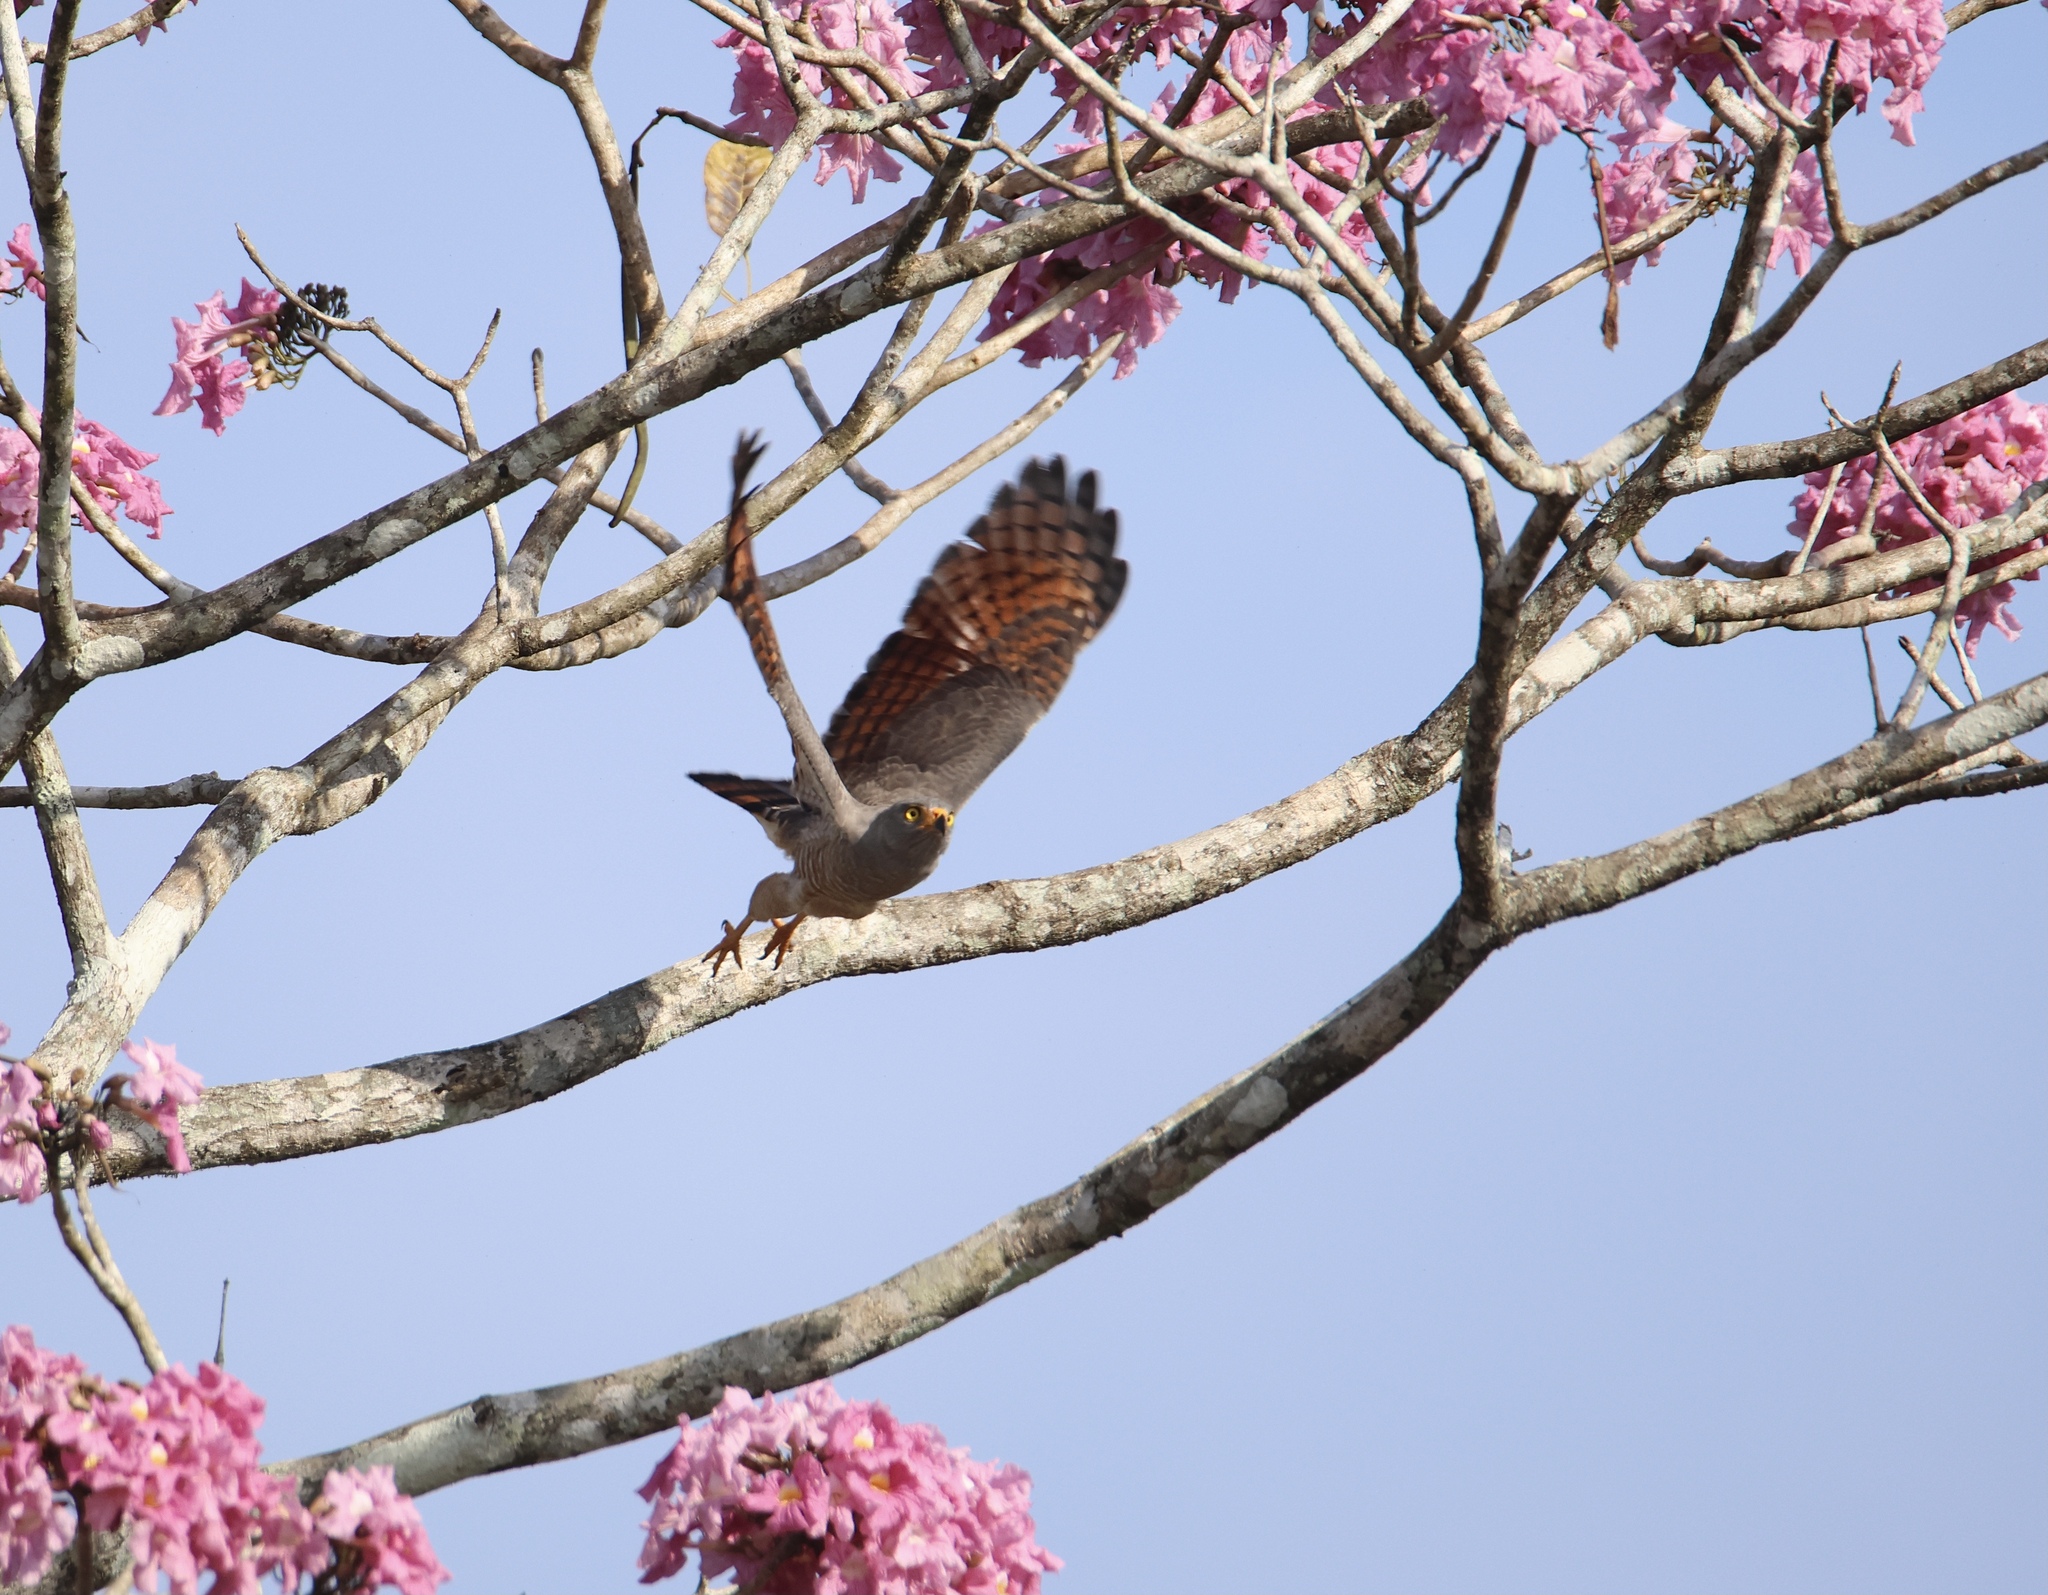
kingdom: Animalia
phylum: Chordata
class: Aves
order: Accipitriformes
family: Accipitridae
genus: Rupornis
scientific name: Rupornis magnirostris
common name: Roadside hawk
